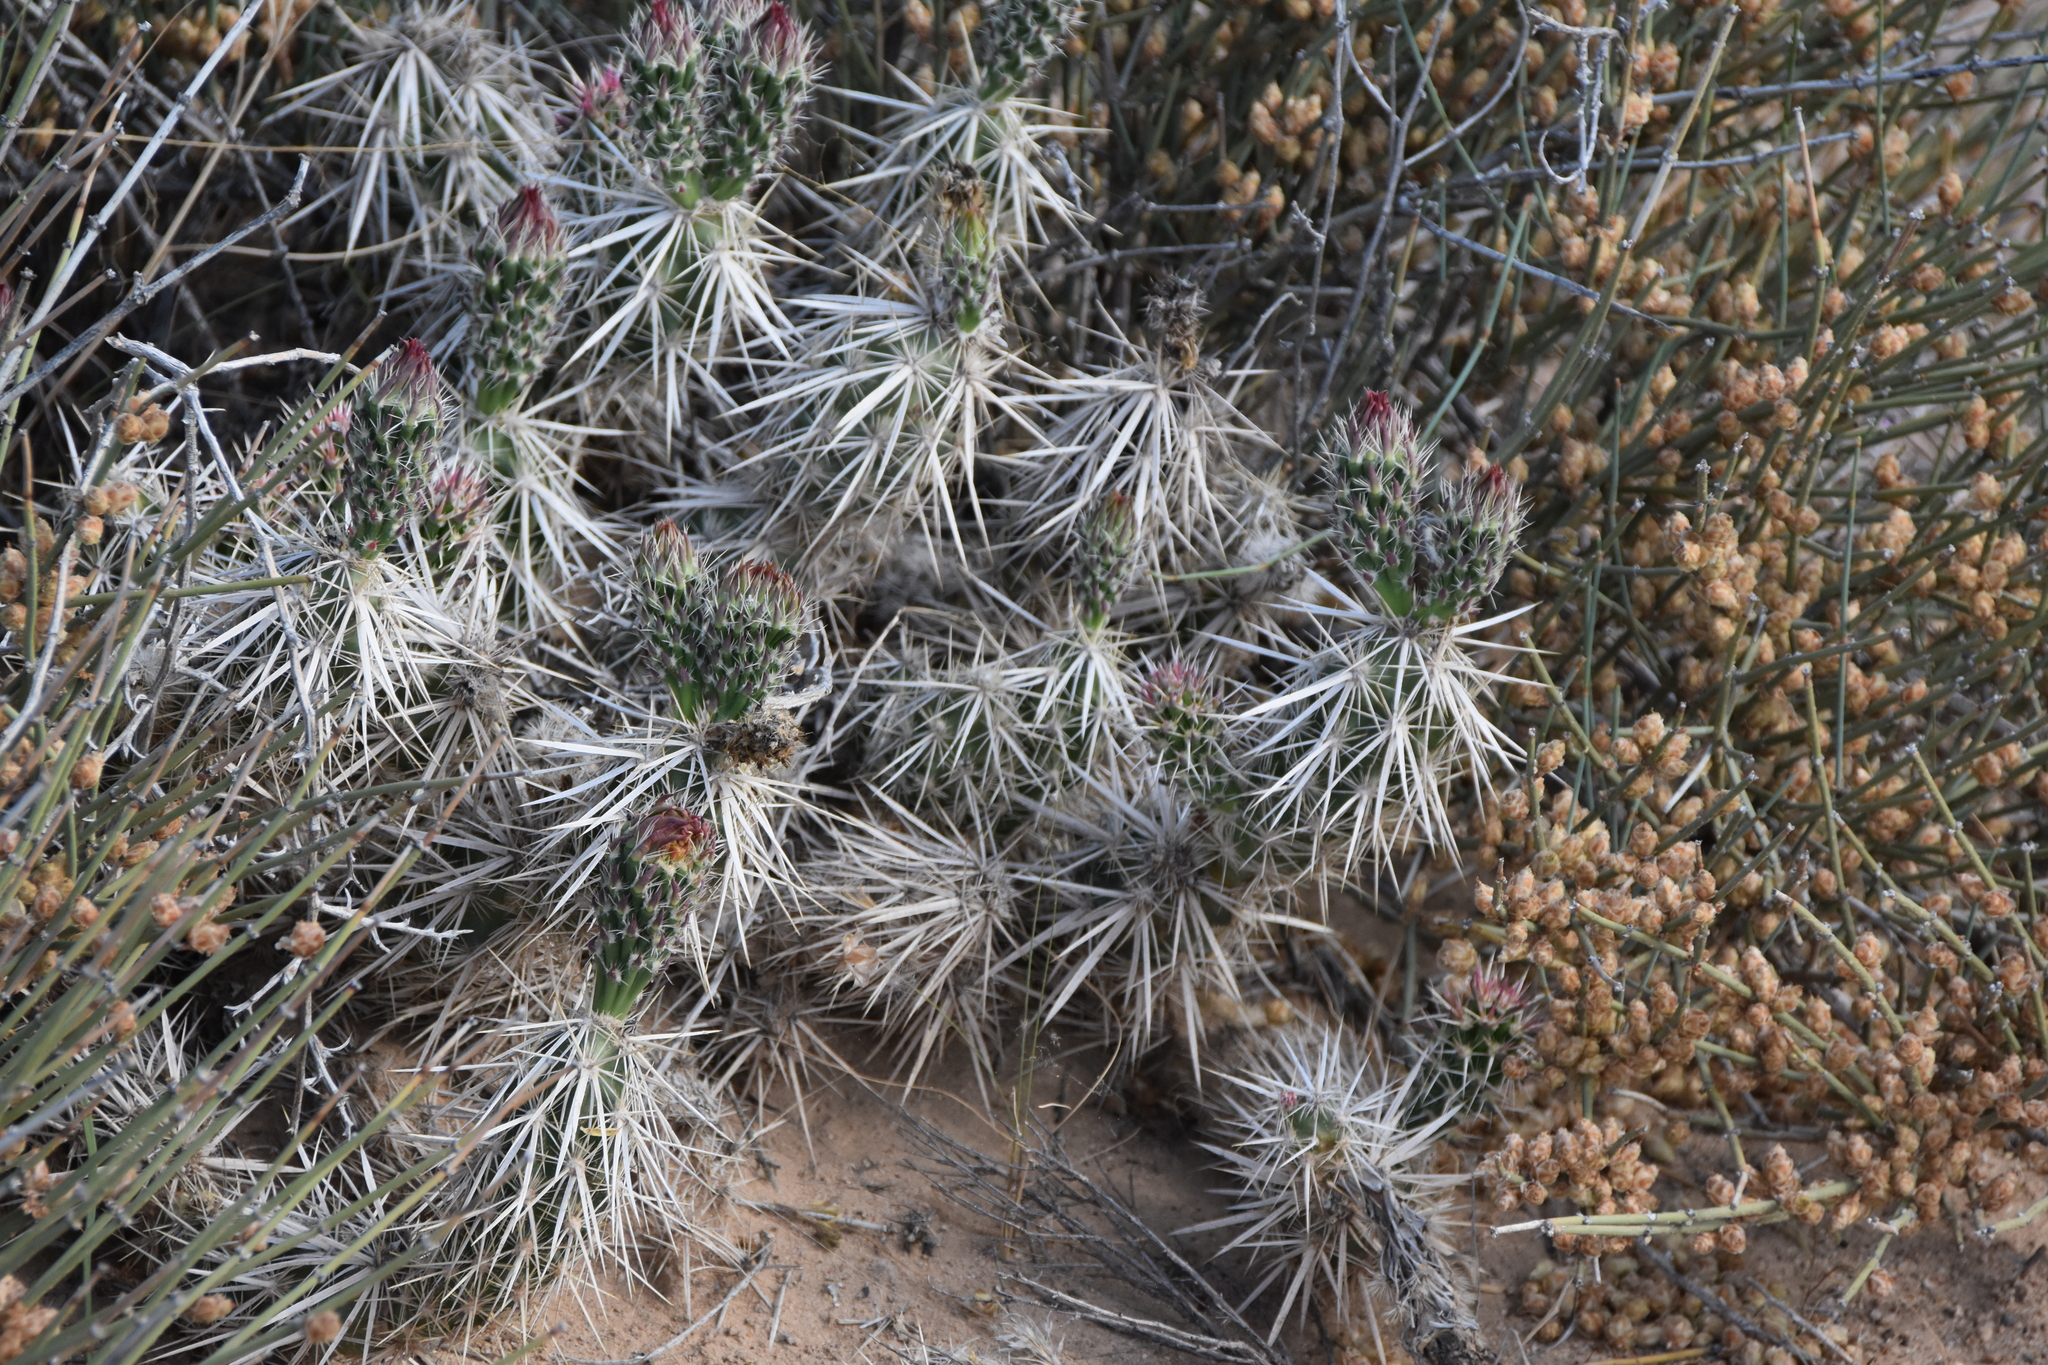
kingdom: Plantae
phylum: Tracheophyta
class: Magnoliopsida
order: Caryophyllales
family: Cactaceae
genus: Grusonia
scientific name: Grusonia clavata
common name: Club cholla
